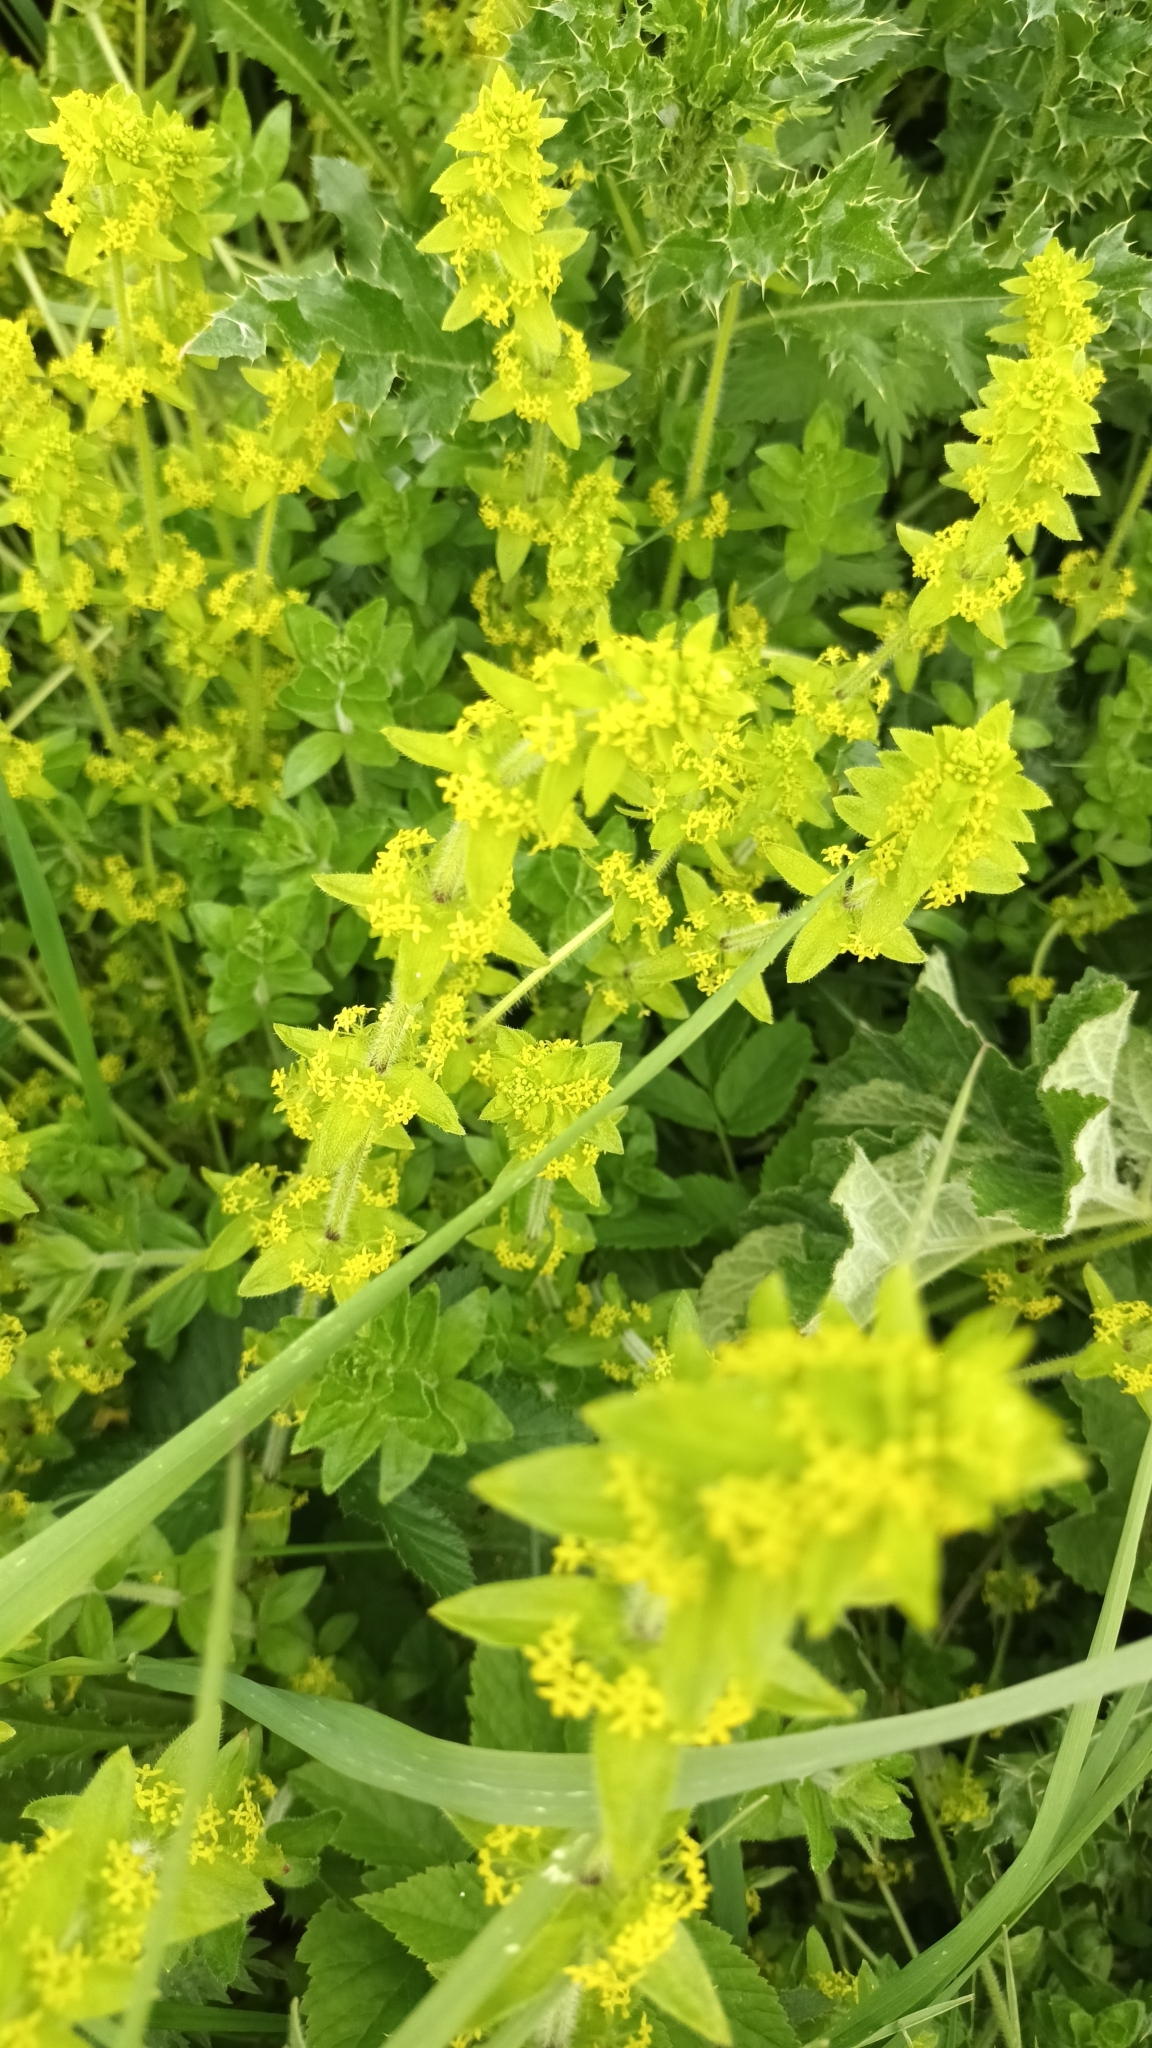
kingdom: Plantae
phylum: Tracheophyta
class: Magnoliopsida
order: Gentianales
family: Rubiaceae
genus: Cruciata
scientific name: Cruciata laevipes
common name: Crosswort
